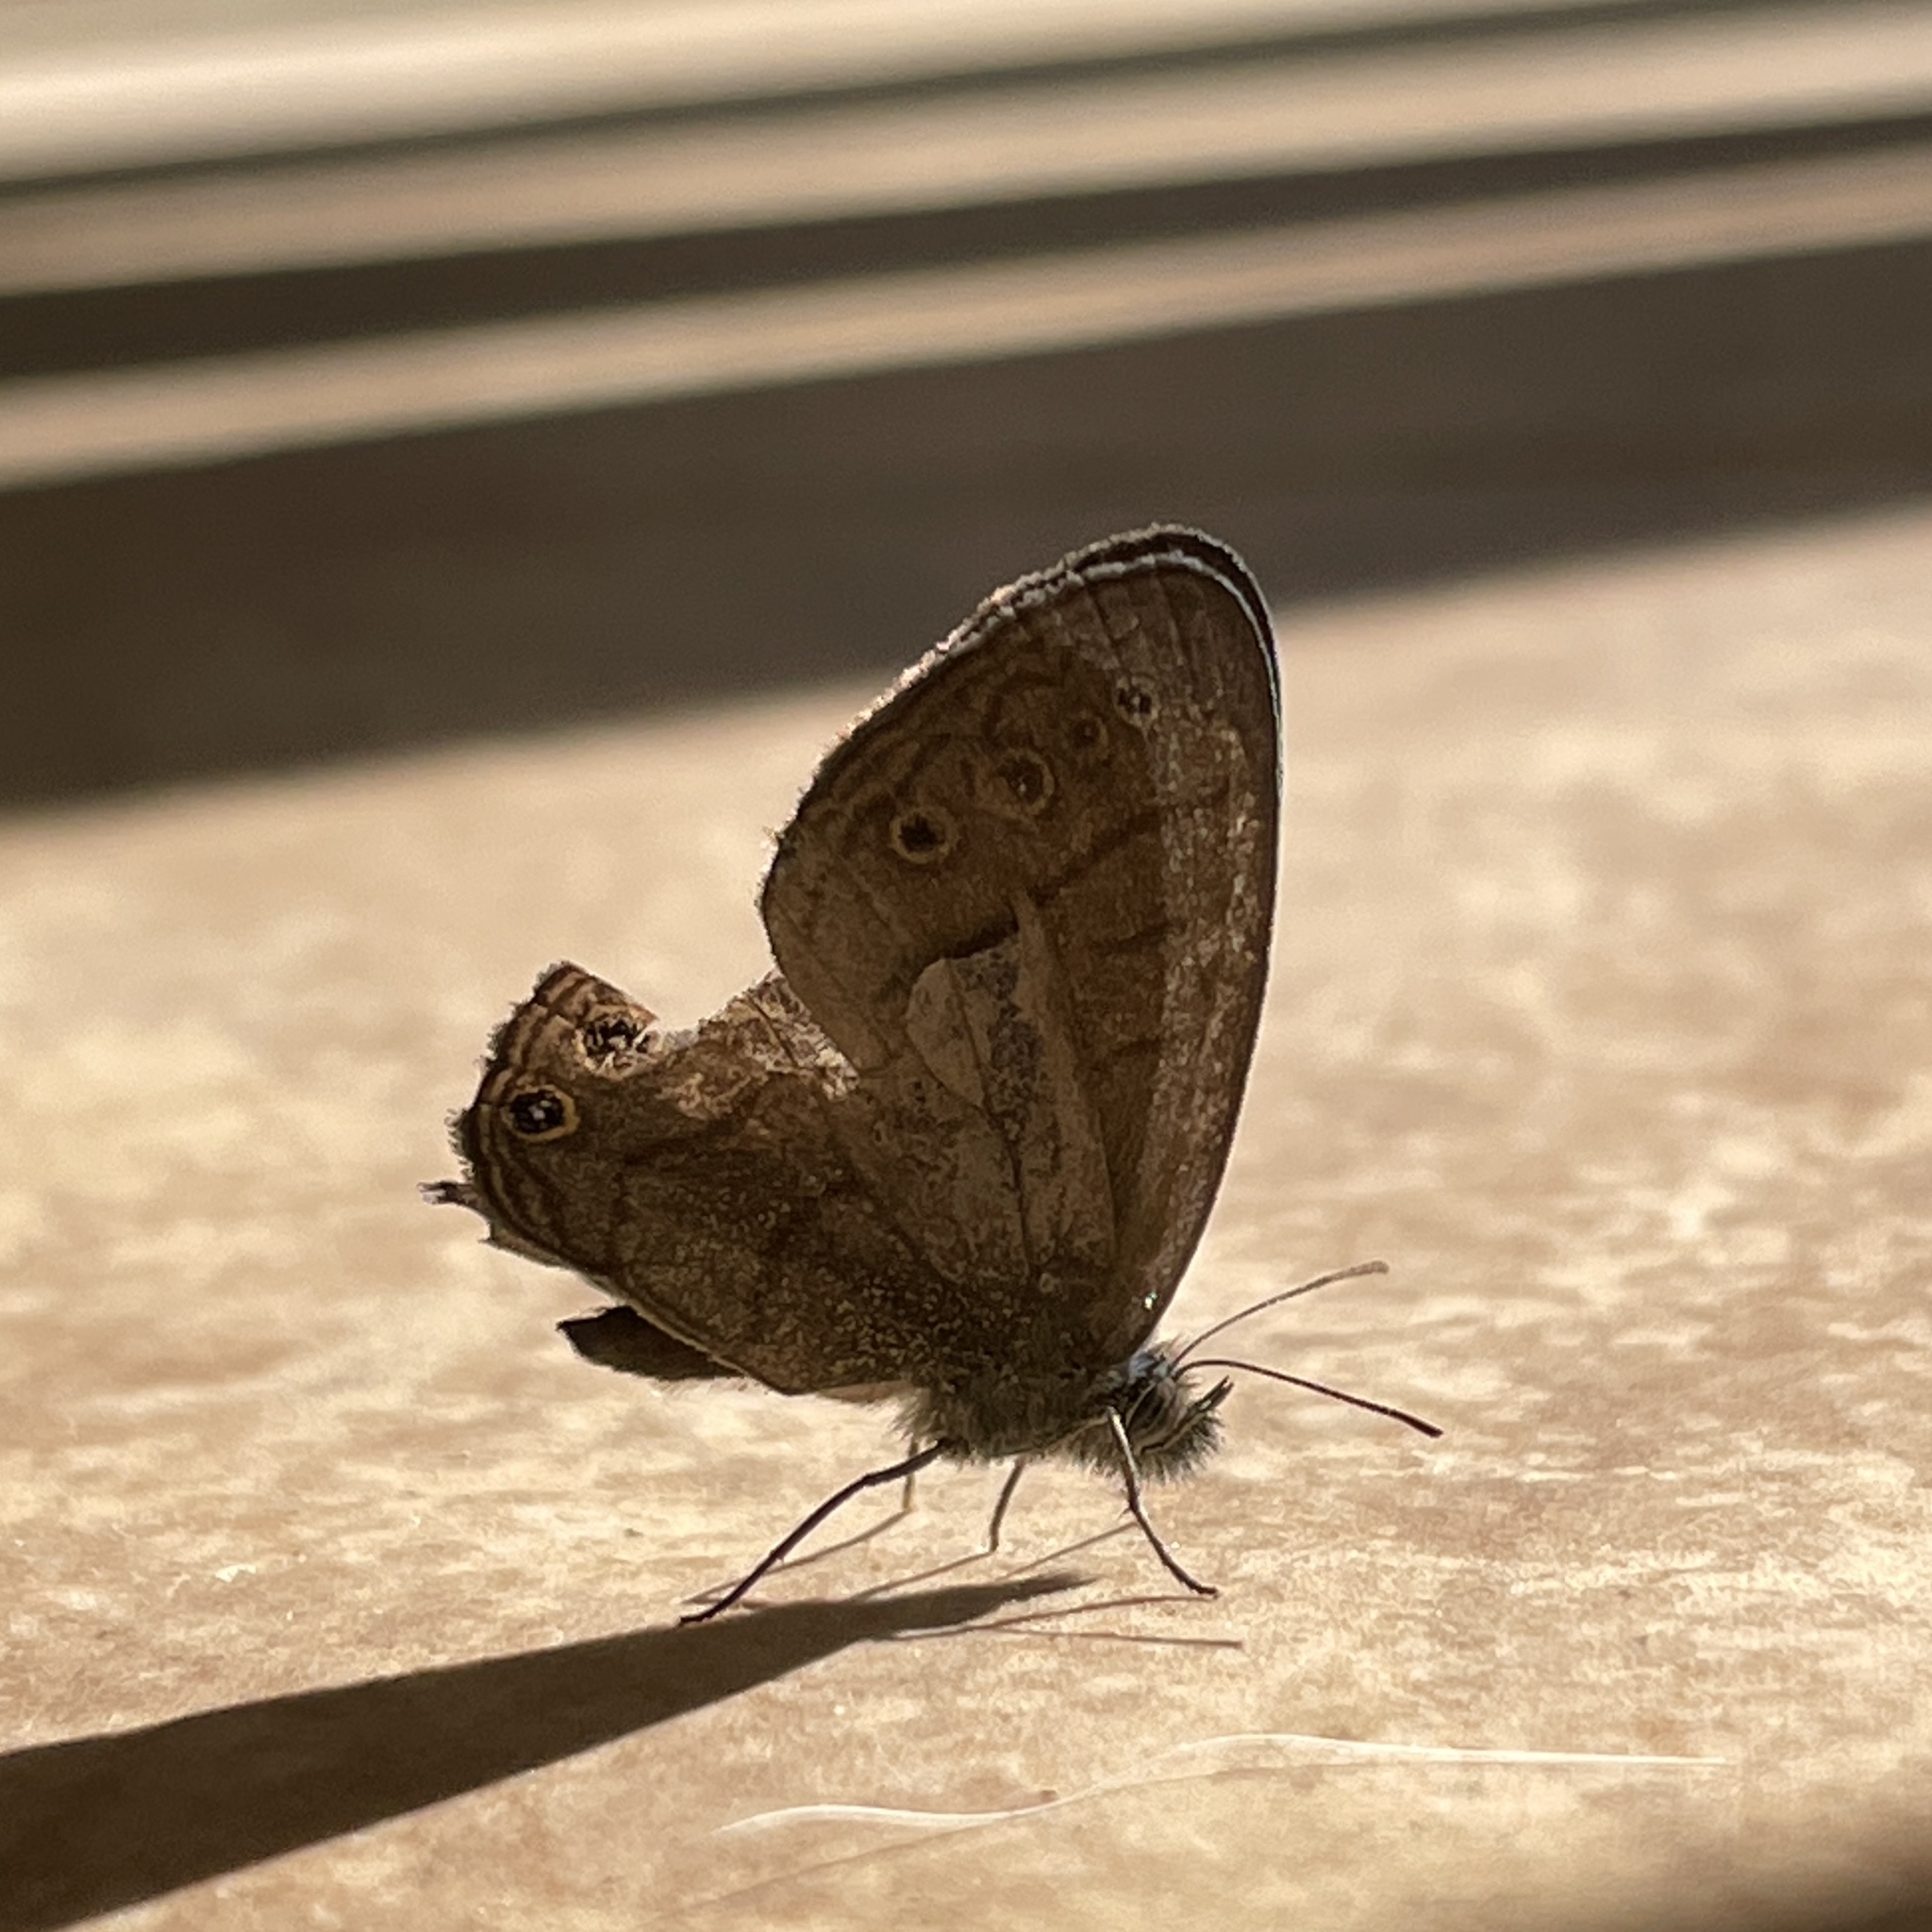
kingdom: Animalia
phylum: Arthropoda
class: Insecta
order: Lepidoptera
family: Nymphalidae
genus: Hermeuptychia
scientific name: Hermeuptychia canthe
